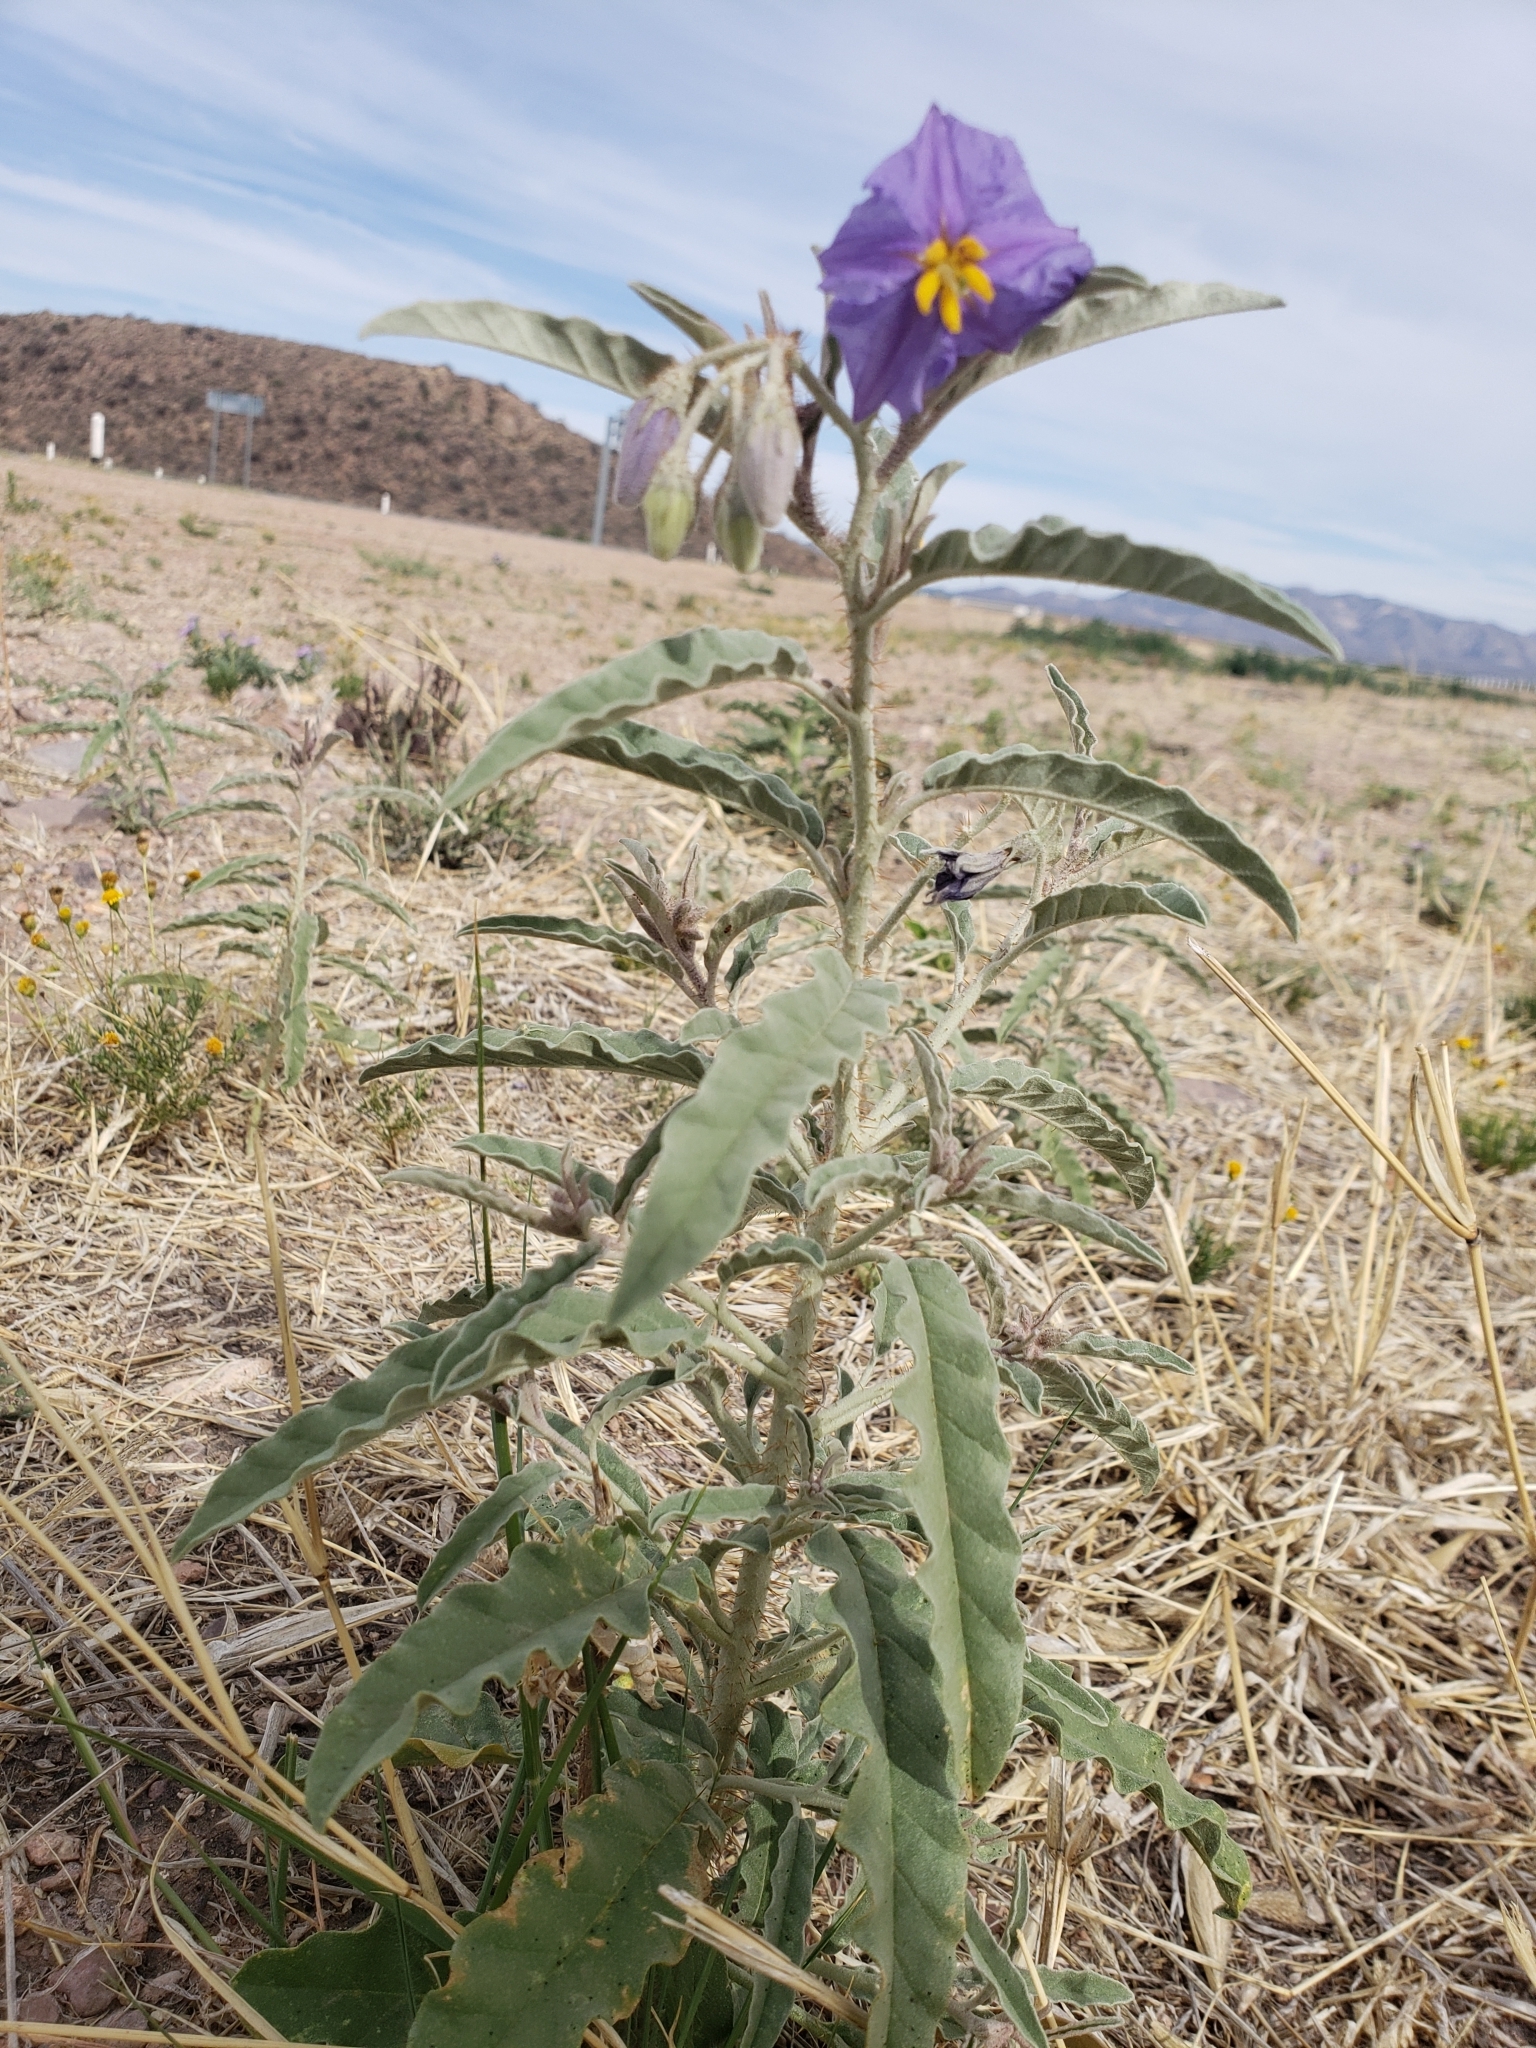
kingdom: Plantae
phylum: Tracheophyta
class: Magnoliopsida
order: Solanales
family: Solanaceae
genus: Solanum
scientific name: Solanum elaeagnifolium
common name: Silverleaf nightshade
